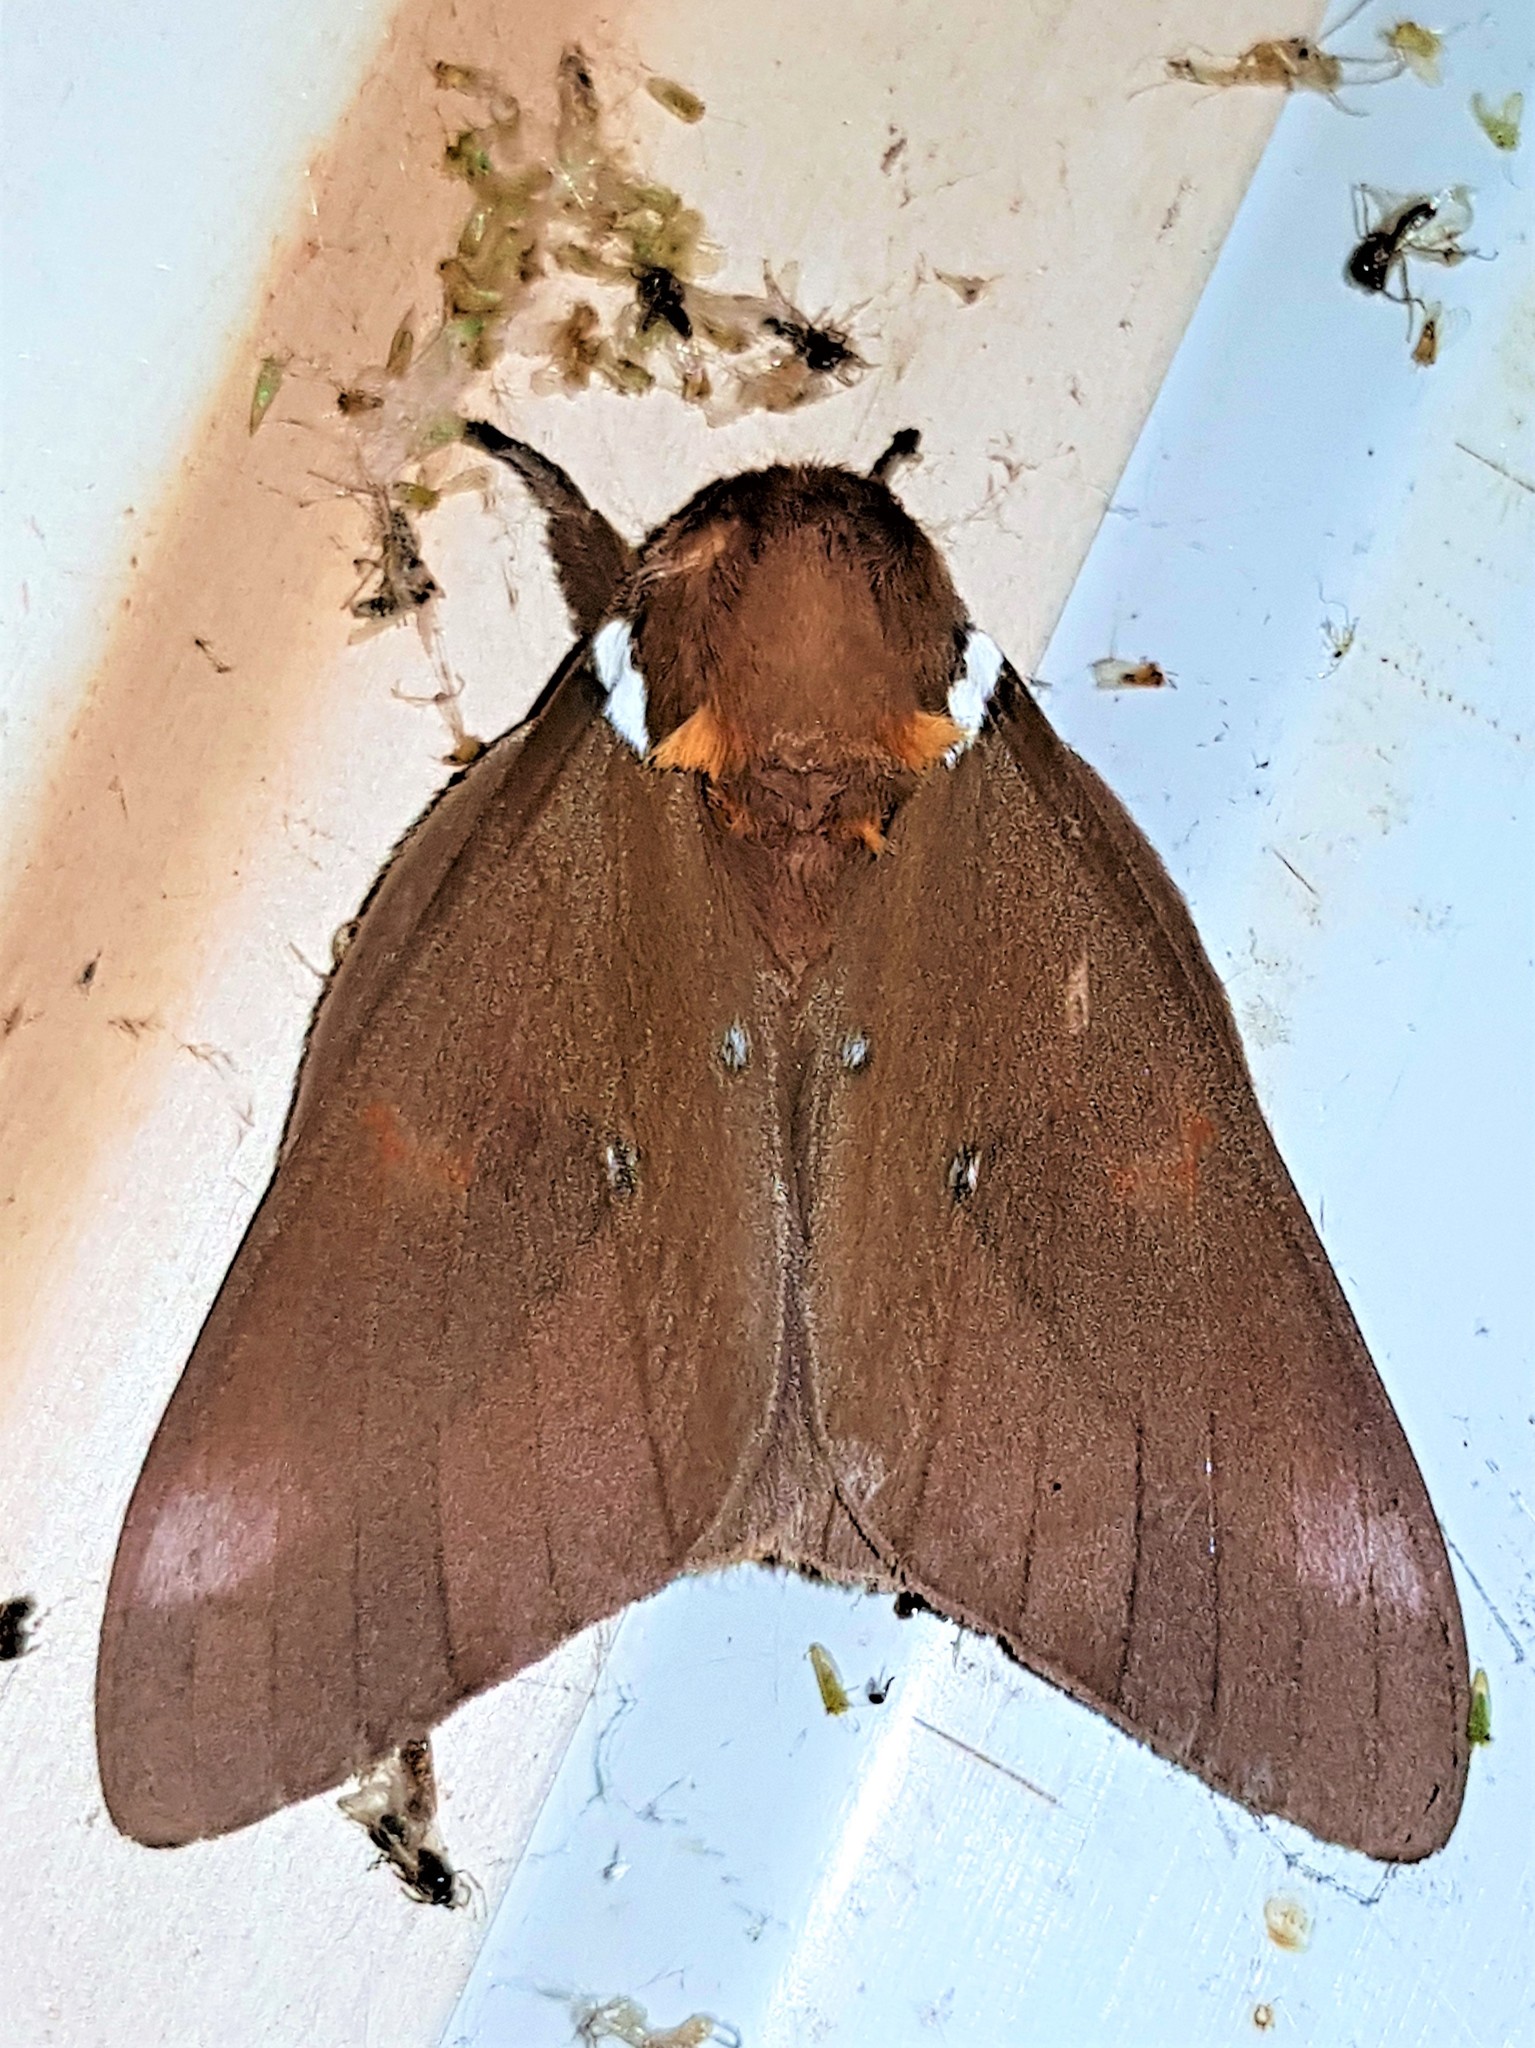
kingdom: Animalia
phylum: Arthropoda
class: Insecta
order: Lepidoptera
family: Saturniidae
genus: Schausiella
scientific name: Schausiella subochreata
